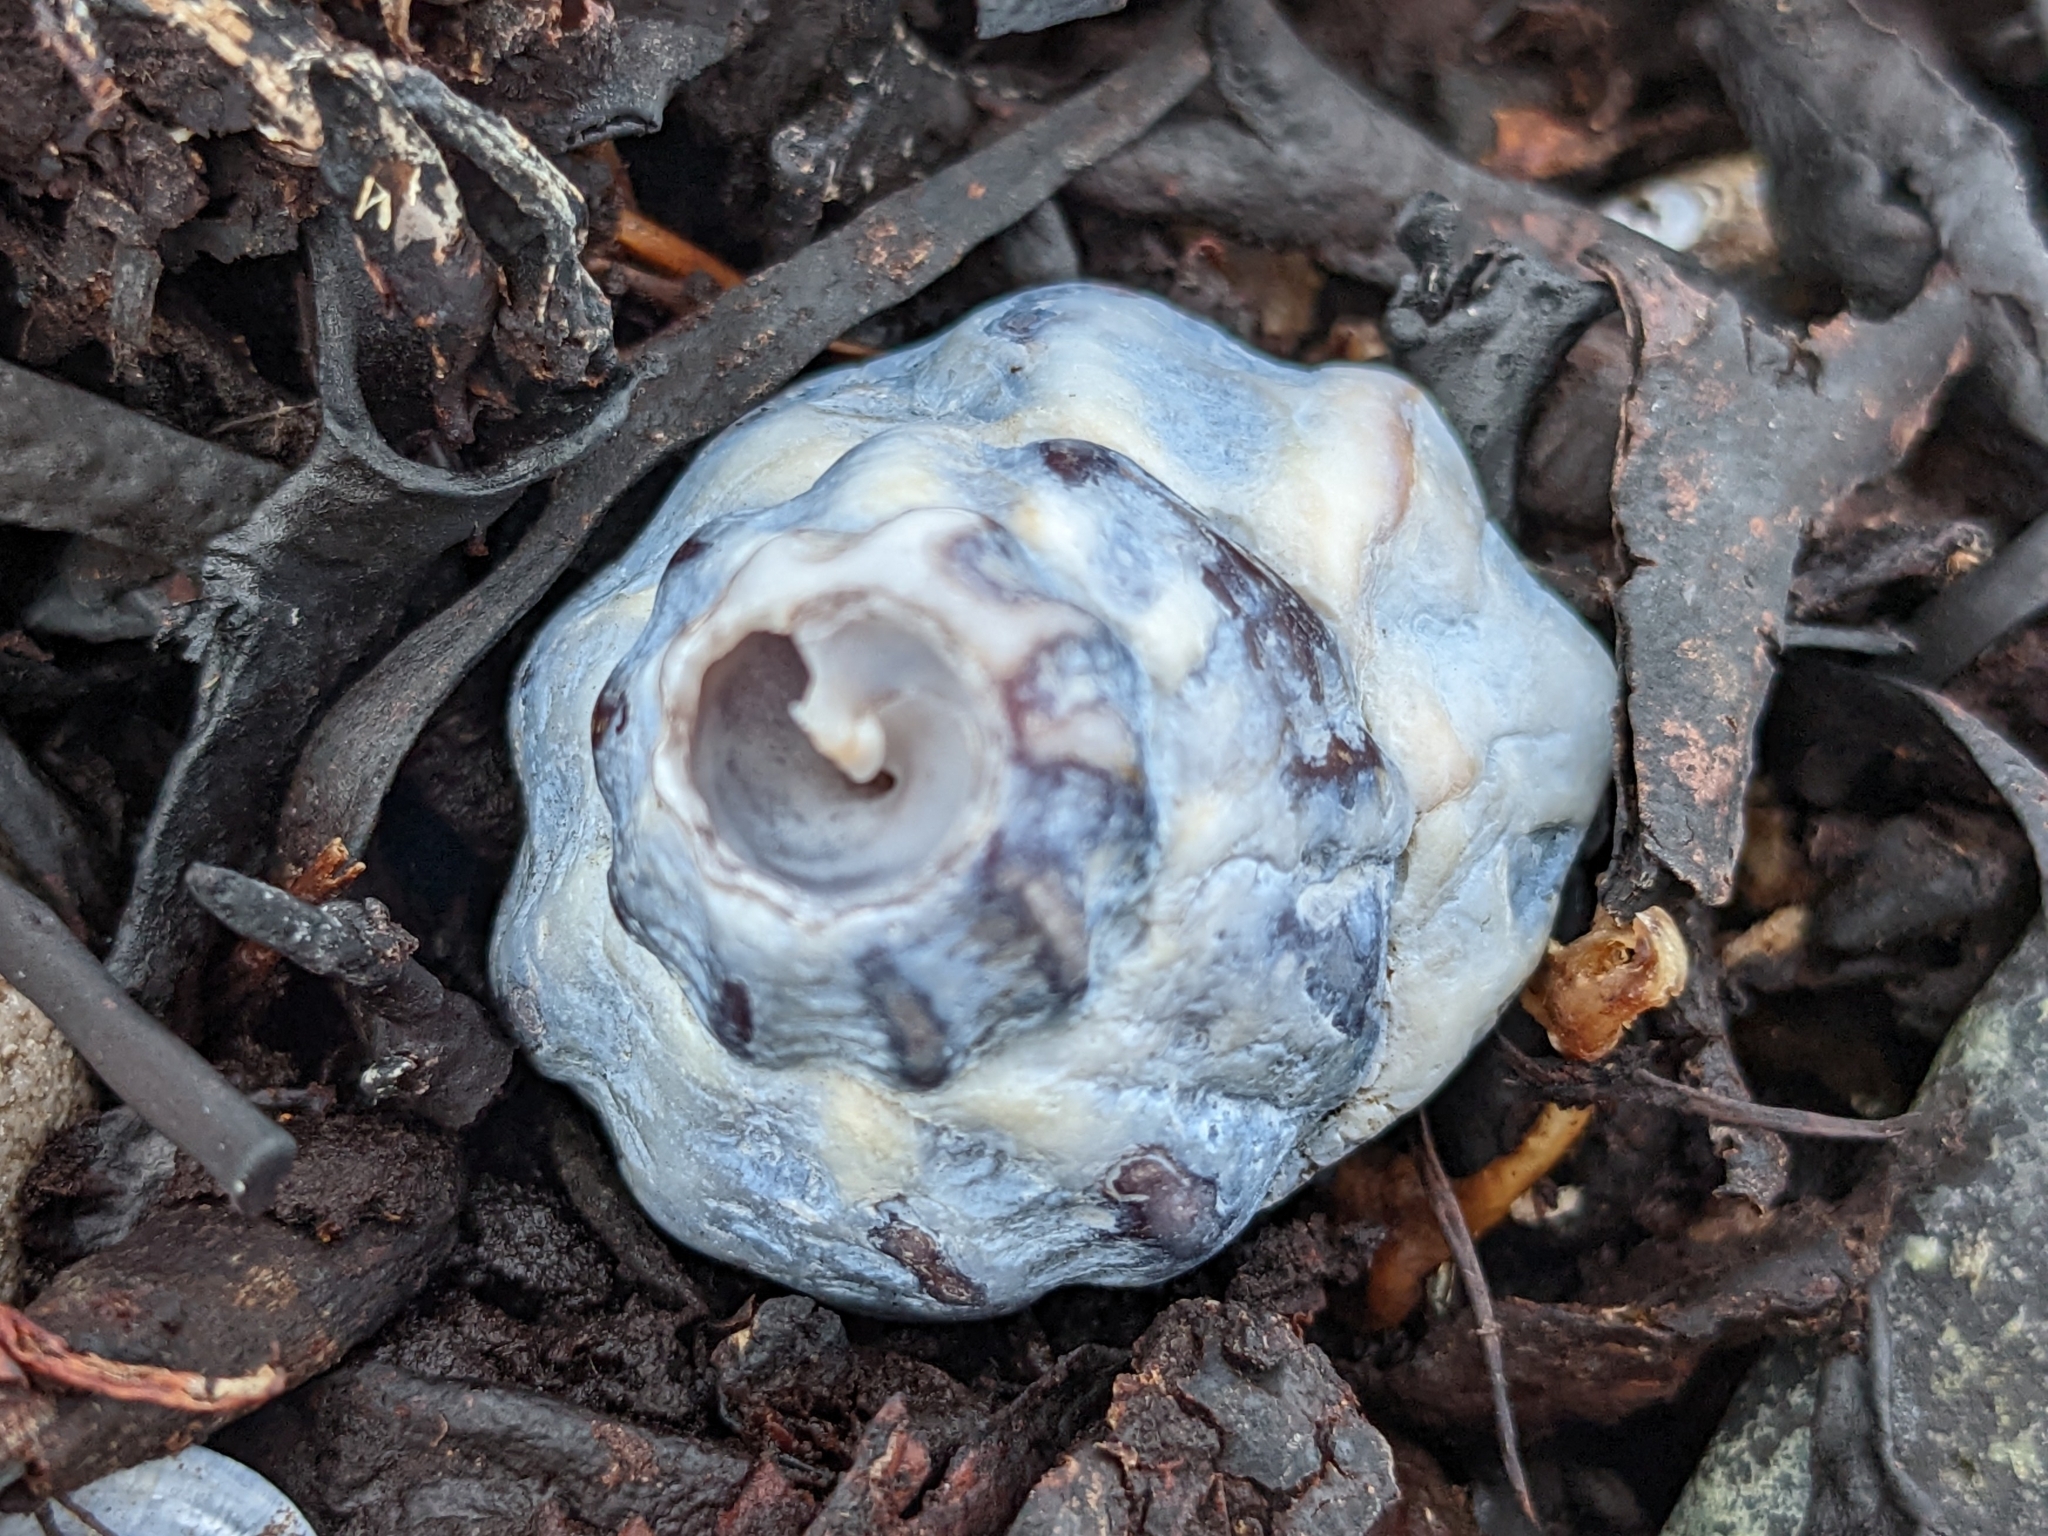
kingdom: Animalia
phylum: Mollusca
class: Gastropoda
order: Neogastropoda
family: Buccinidae
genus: Buccinum
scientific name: Buccinum undatum
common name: Common whelk
